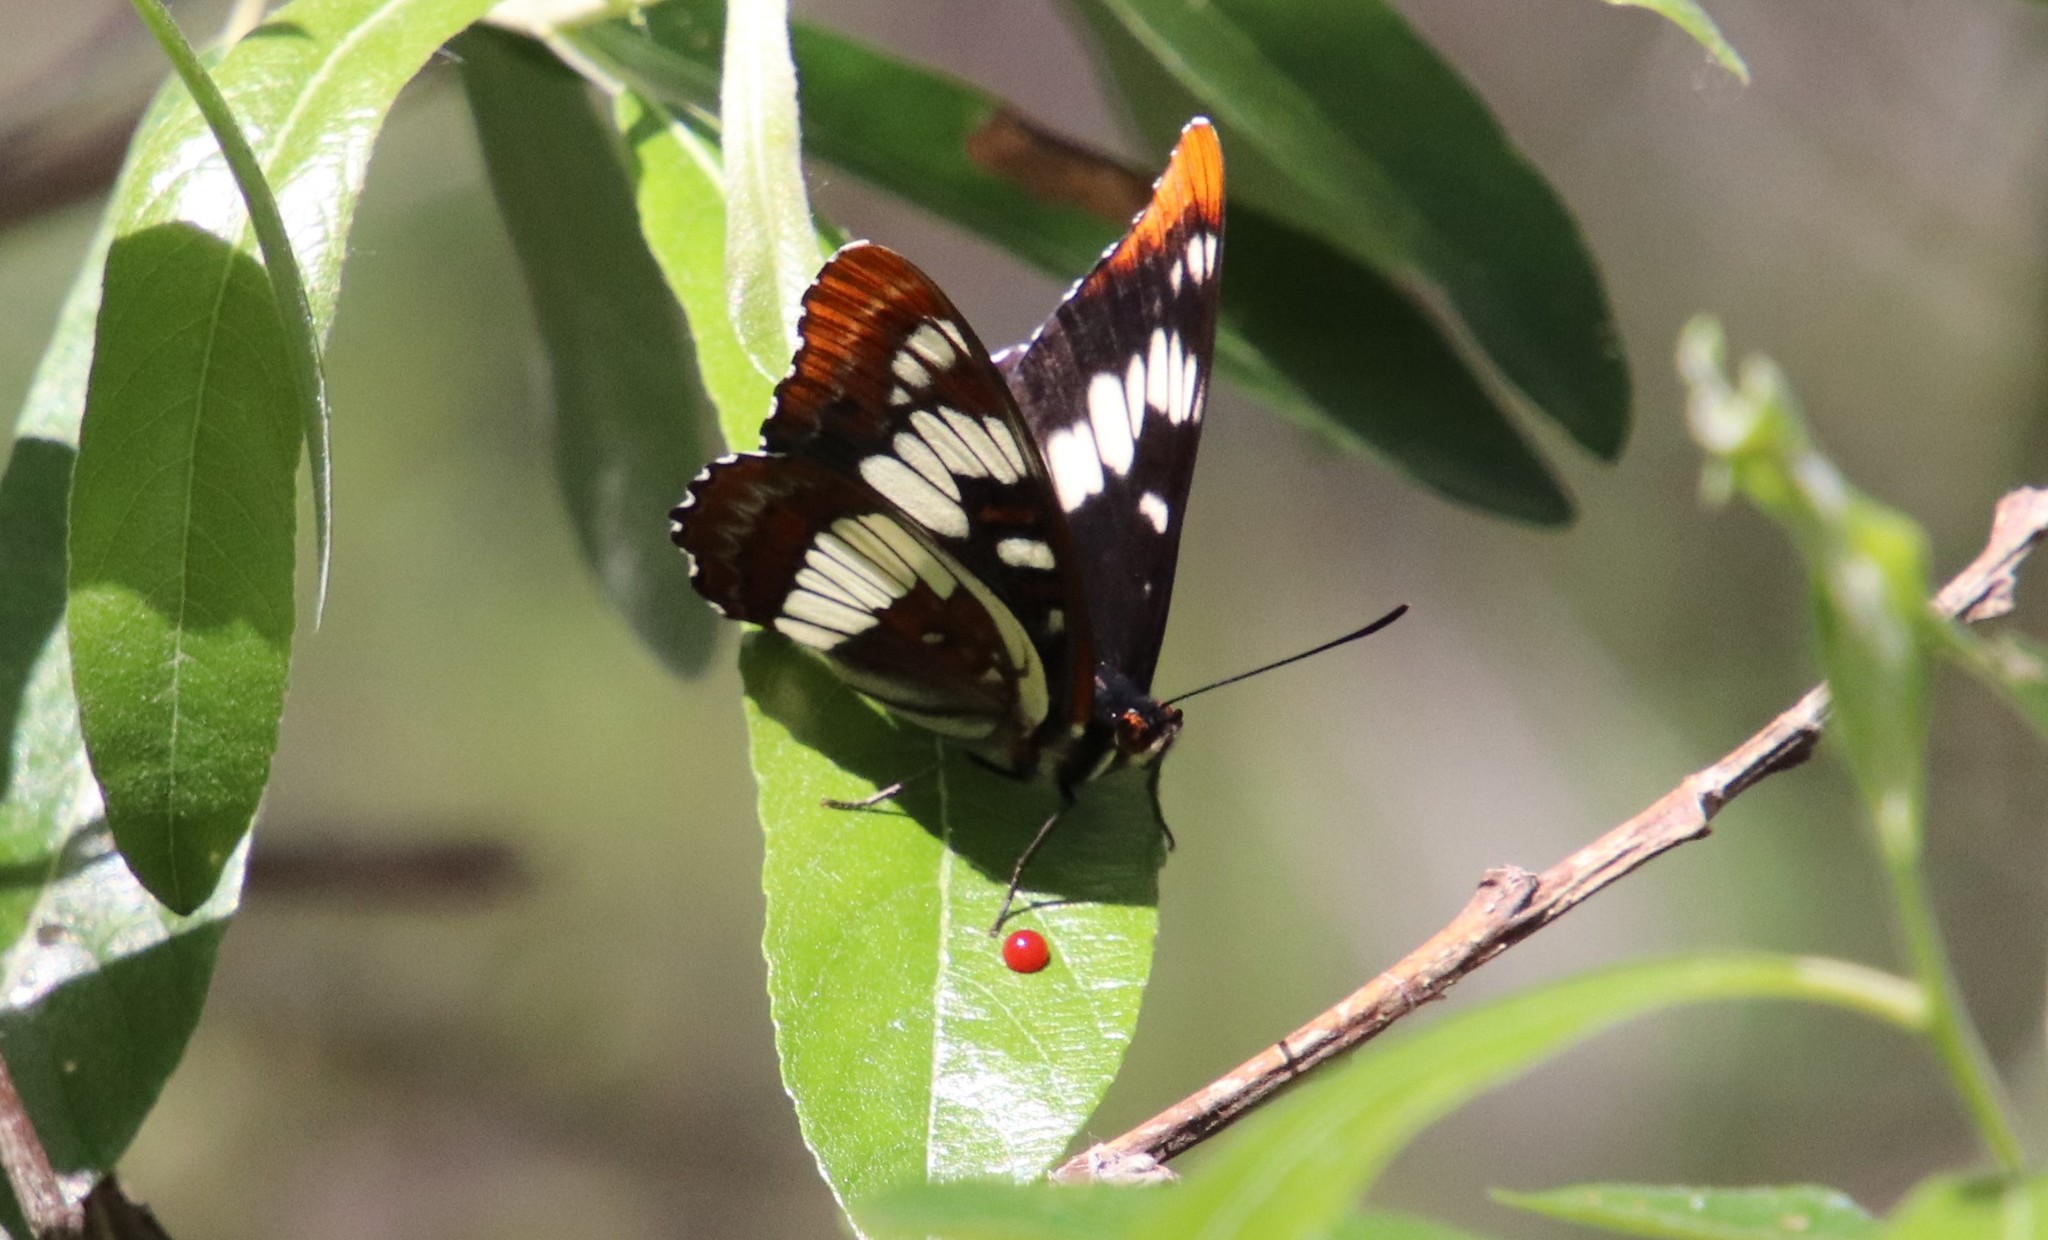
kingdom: Animalia
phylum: Arthropoda
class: Insecta
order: Lepidoptera
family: Nymphalidae
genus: Limenitis
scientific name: Limenitis lorquini
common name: Lorquin's admiral
